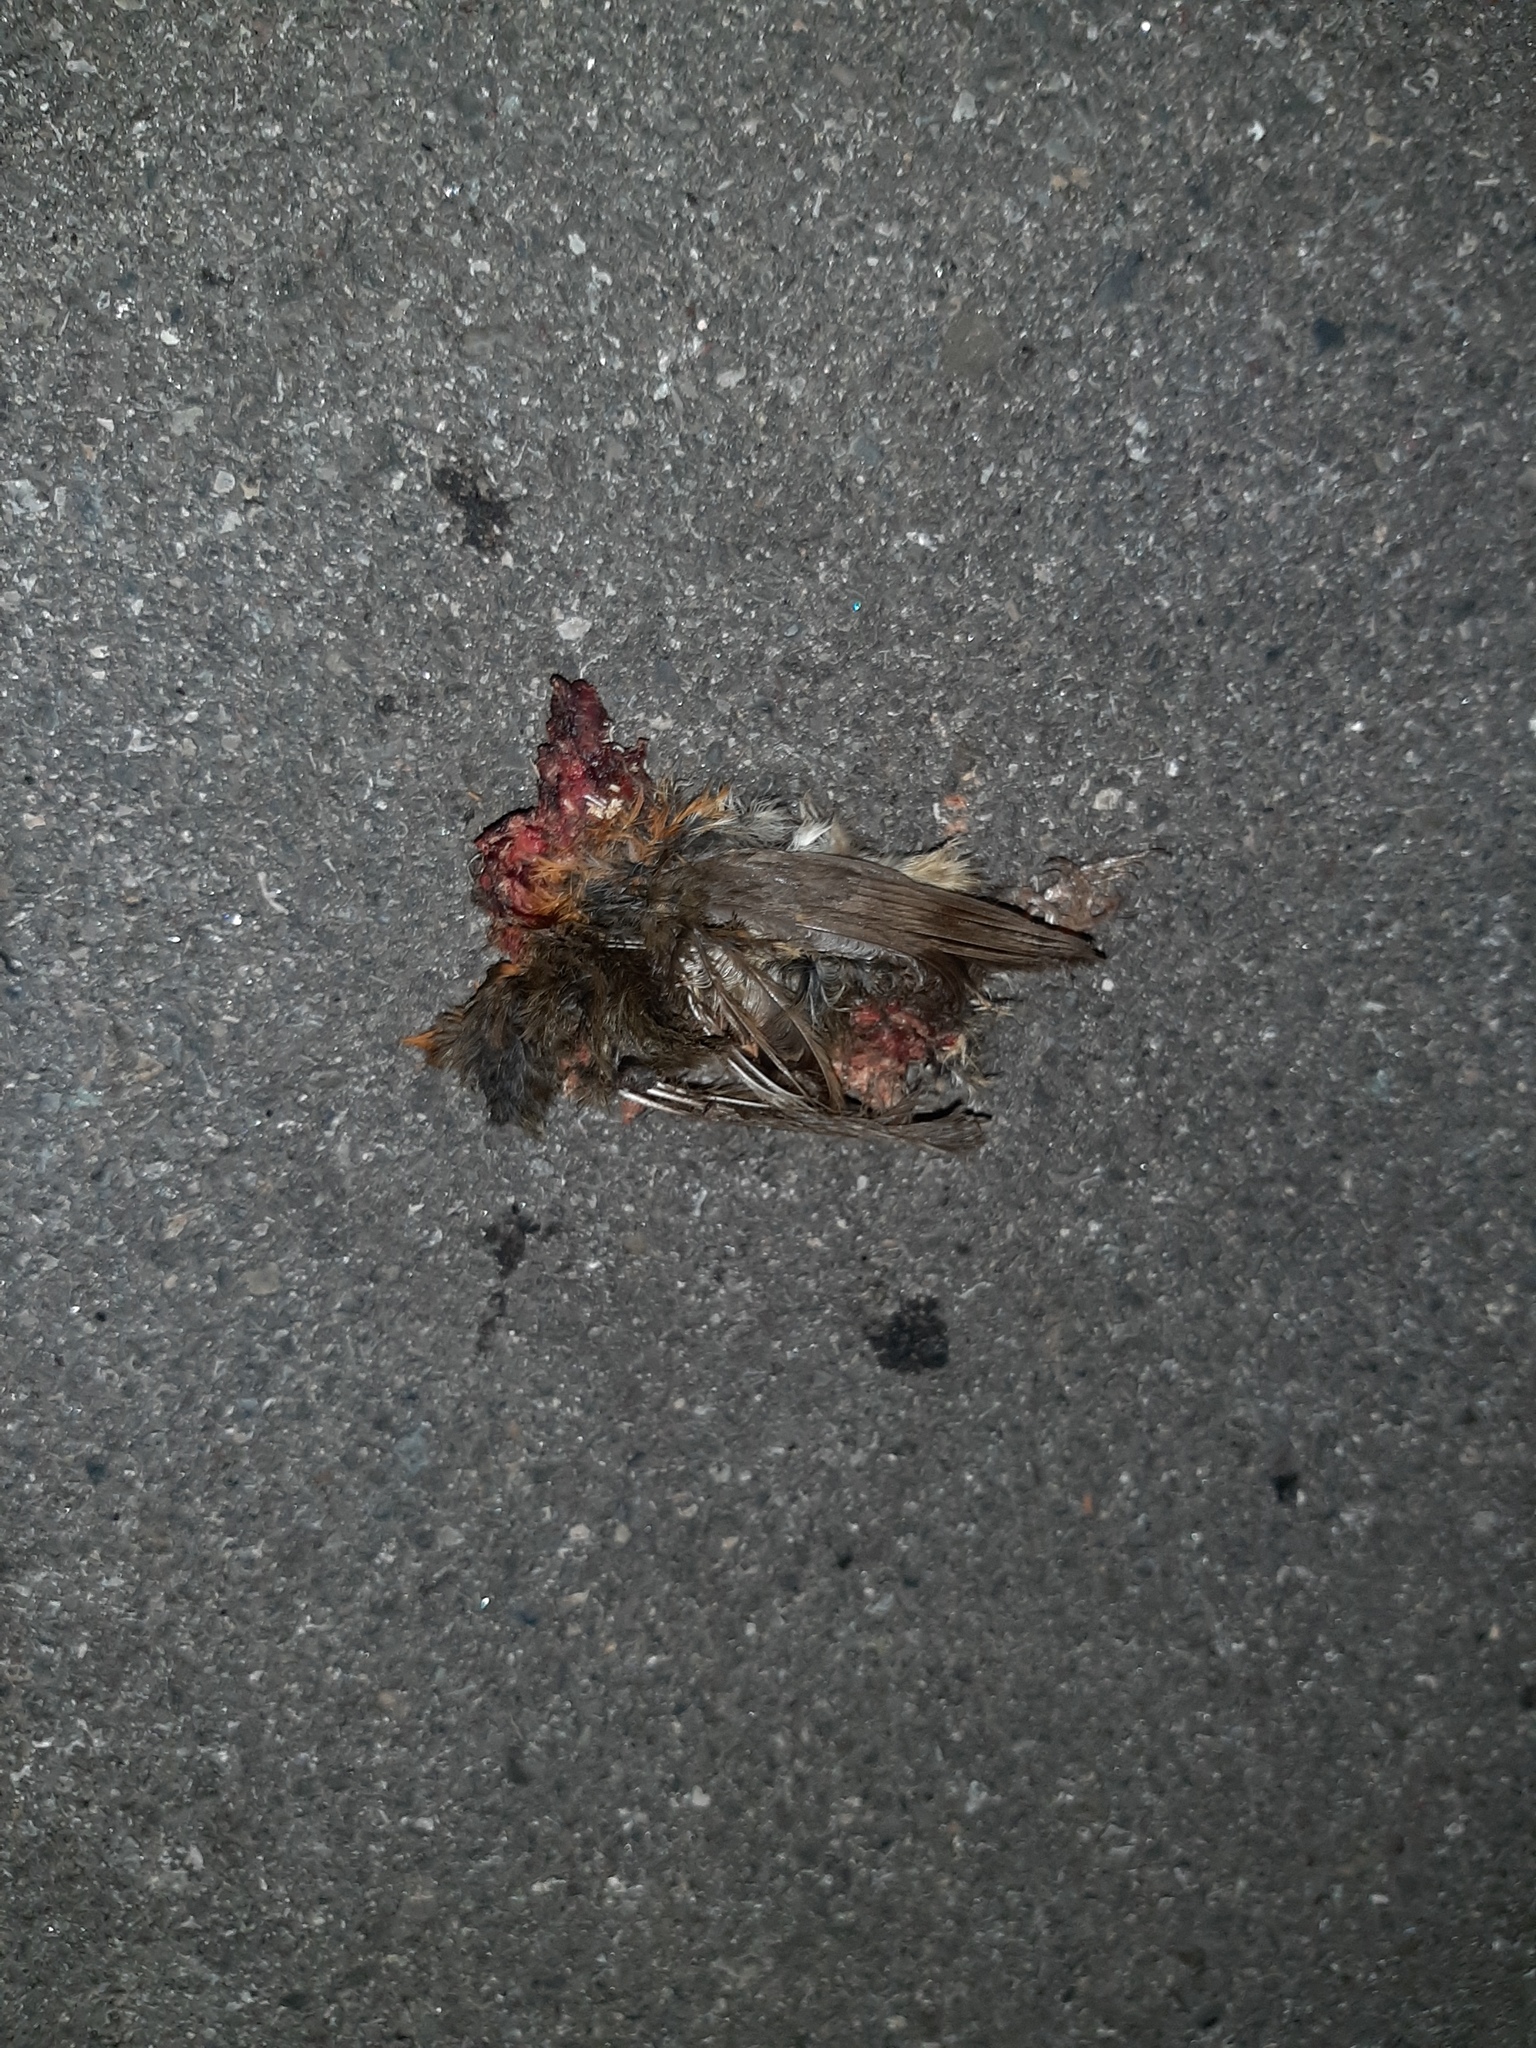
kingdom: Animalia
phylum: Chordata
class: Aves
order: Passeriformes
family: Turdidae
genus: Turdus
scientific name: Turdus merula
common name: Common blackbird
